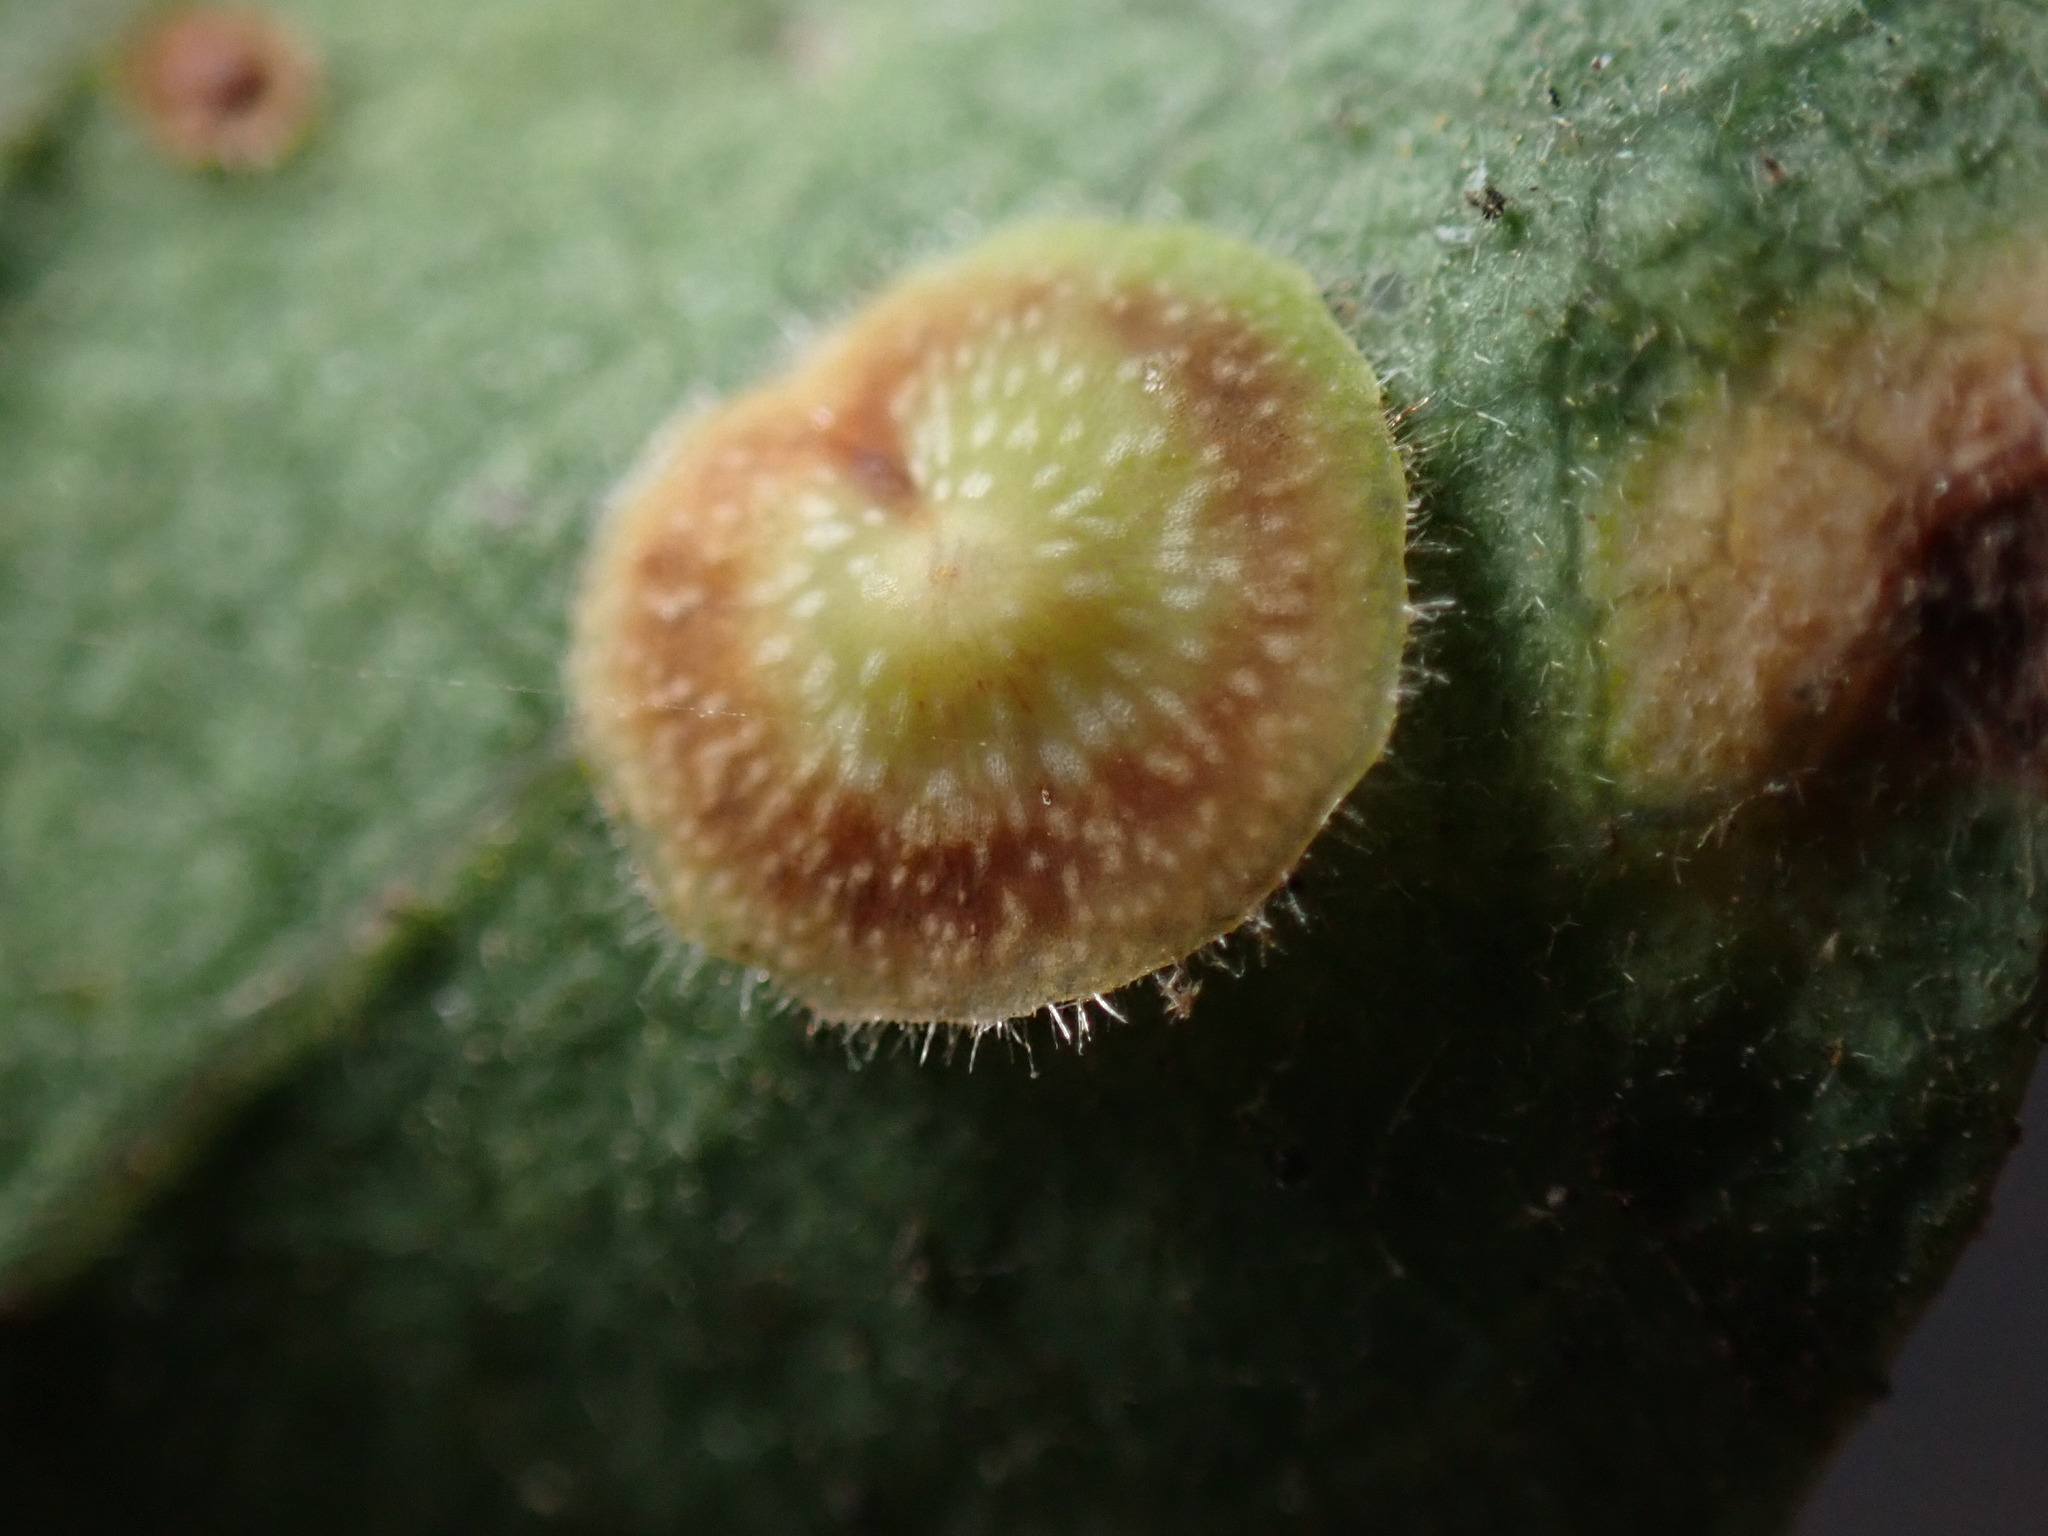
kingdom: Animalia
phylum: Arthropoda
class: Insecta
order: Hymenoptera
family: Cynipidae
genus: Andricus
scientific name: Andricus
